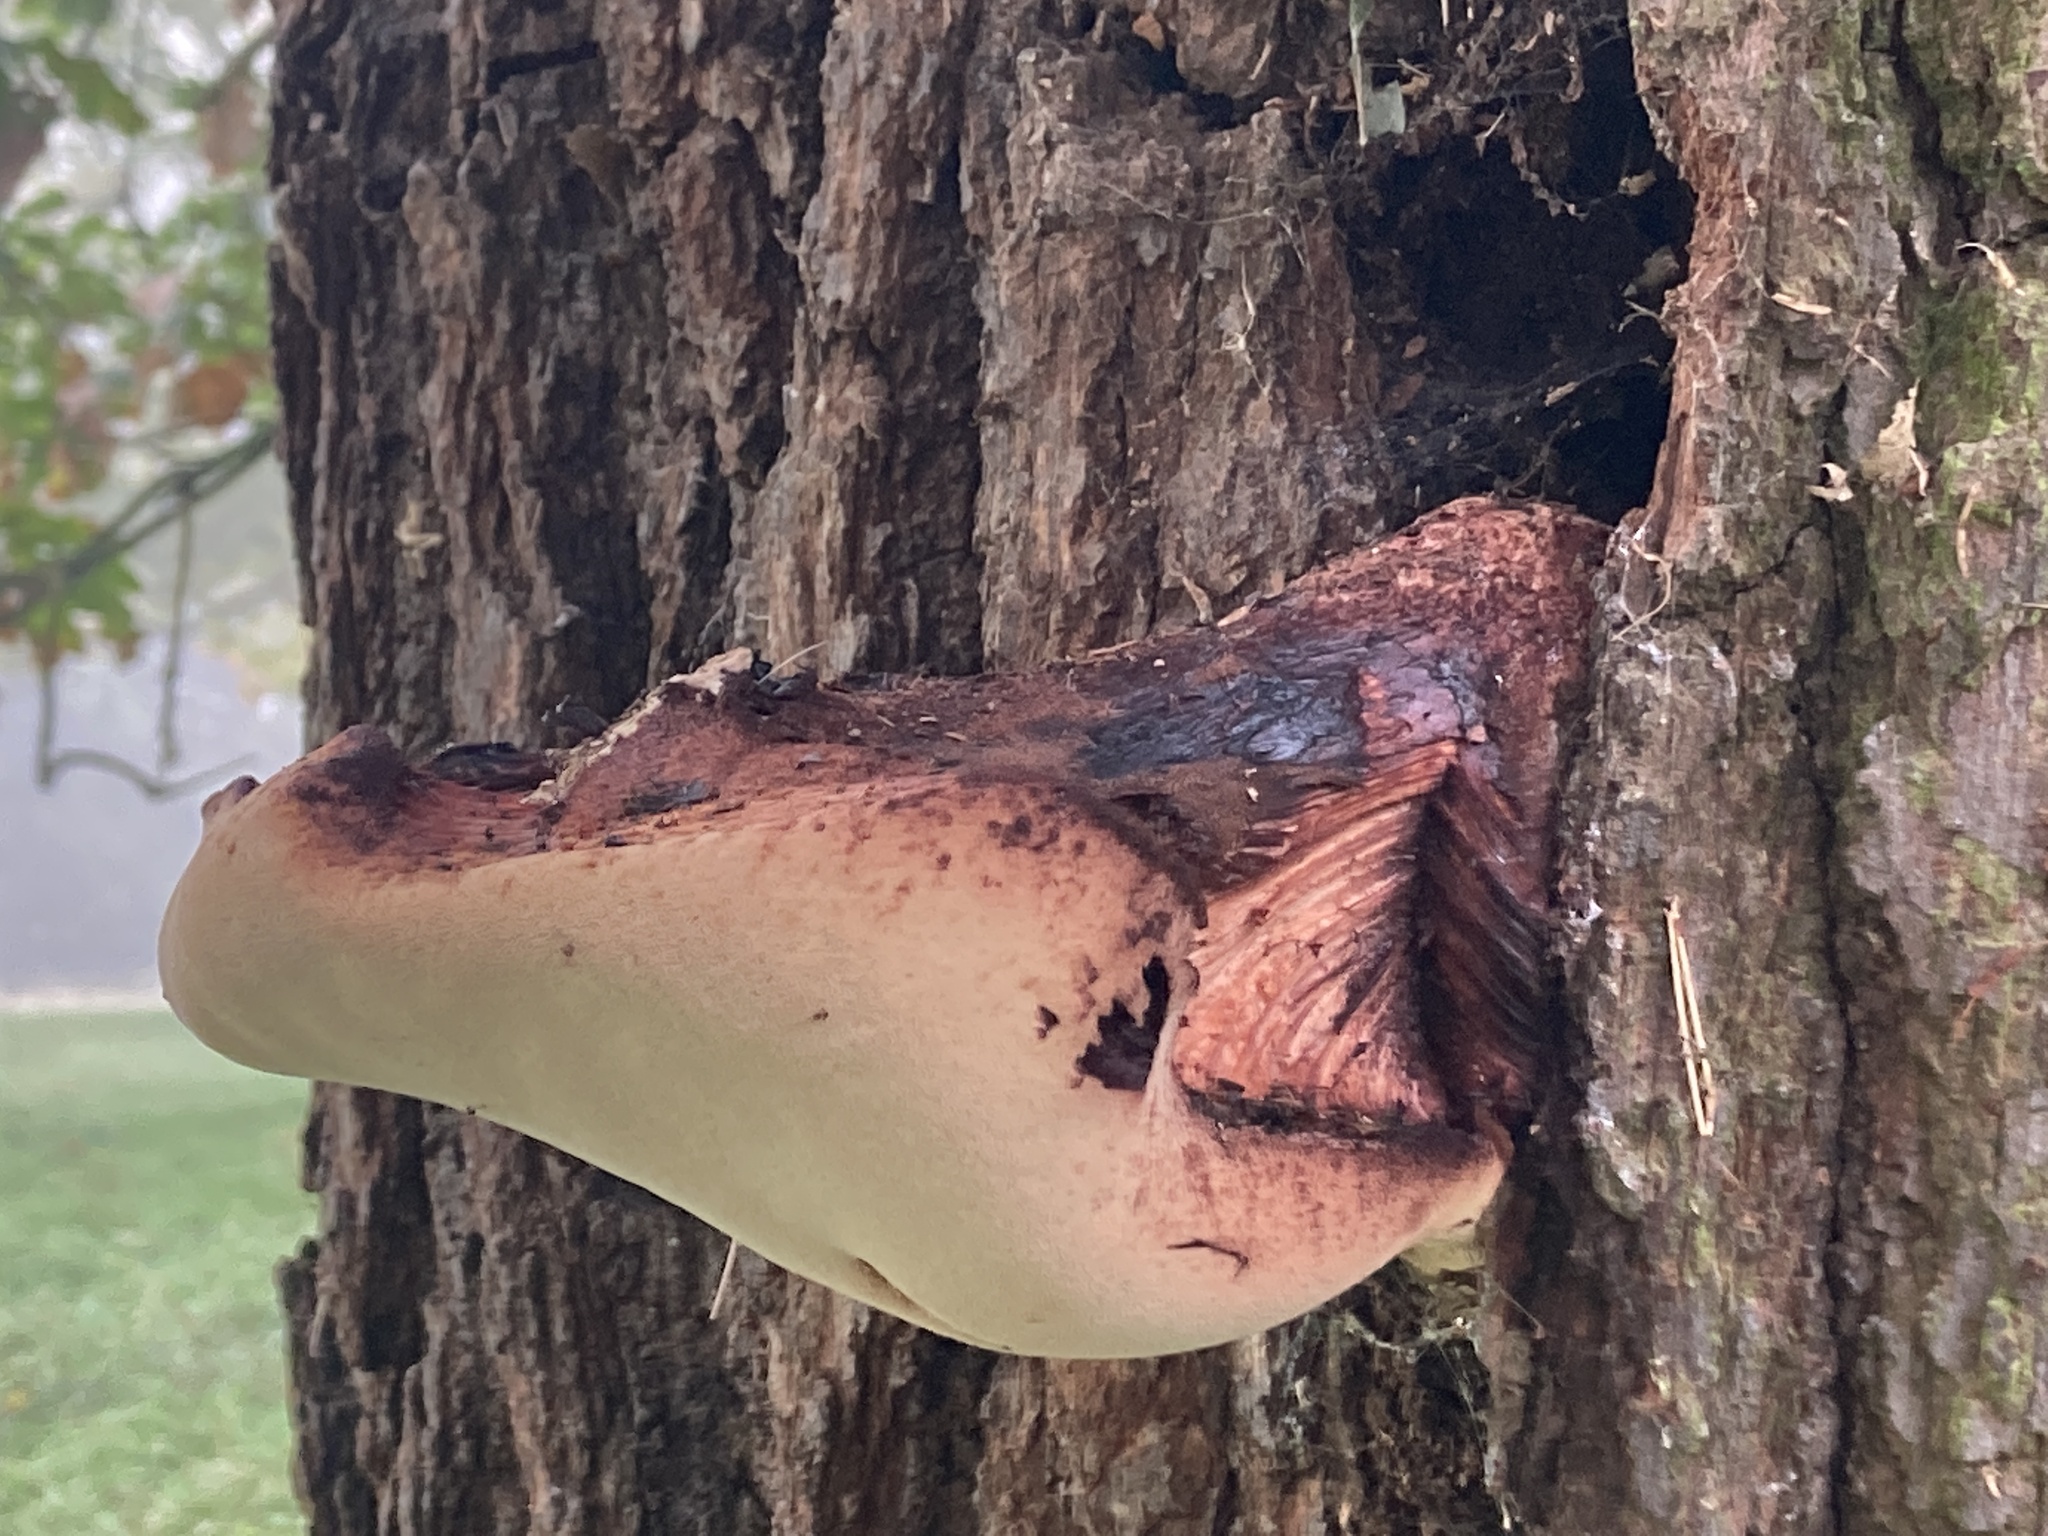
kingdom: Fungi
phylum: Basidiomycota
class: Agaricomycetes
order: Agaricales
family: Fistulinaceae
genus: Fistulina
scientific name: Fistulina hepatica
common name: Beef-steak fungus
